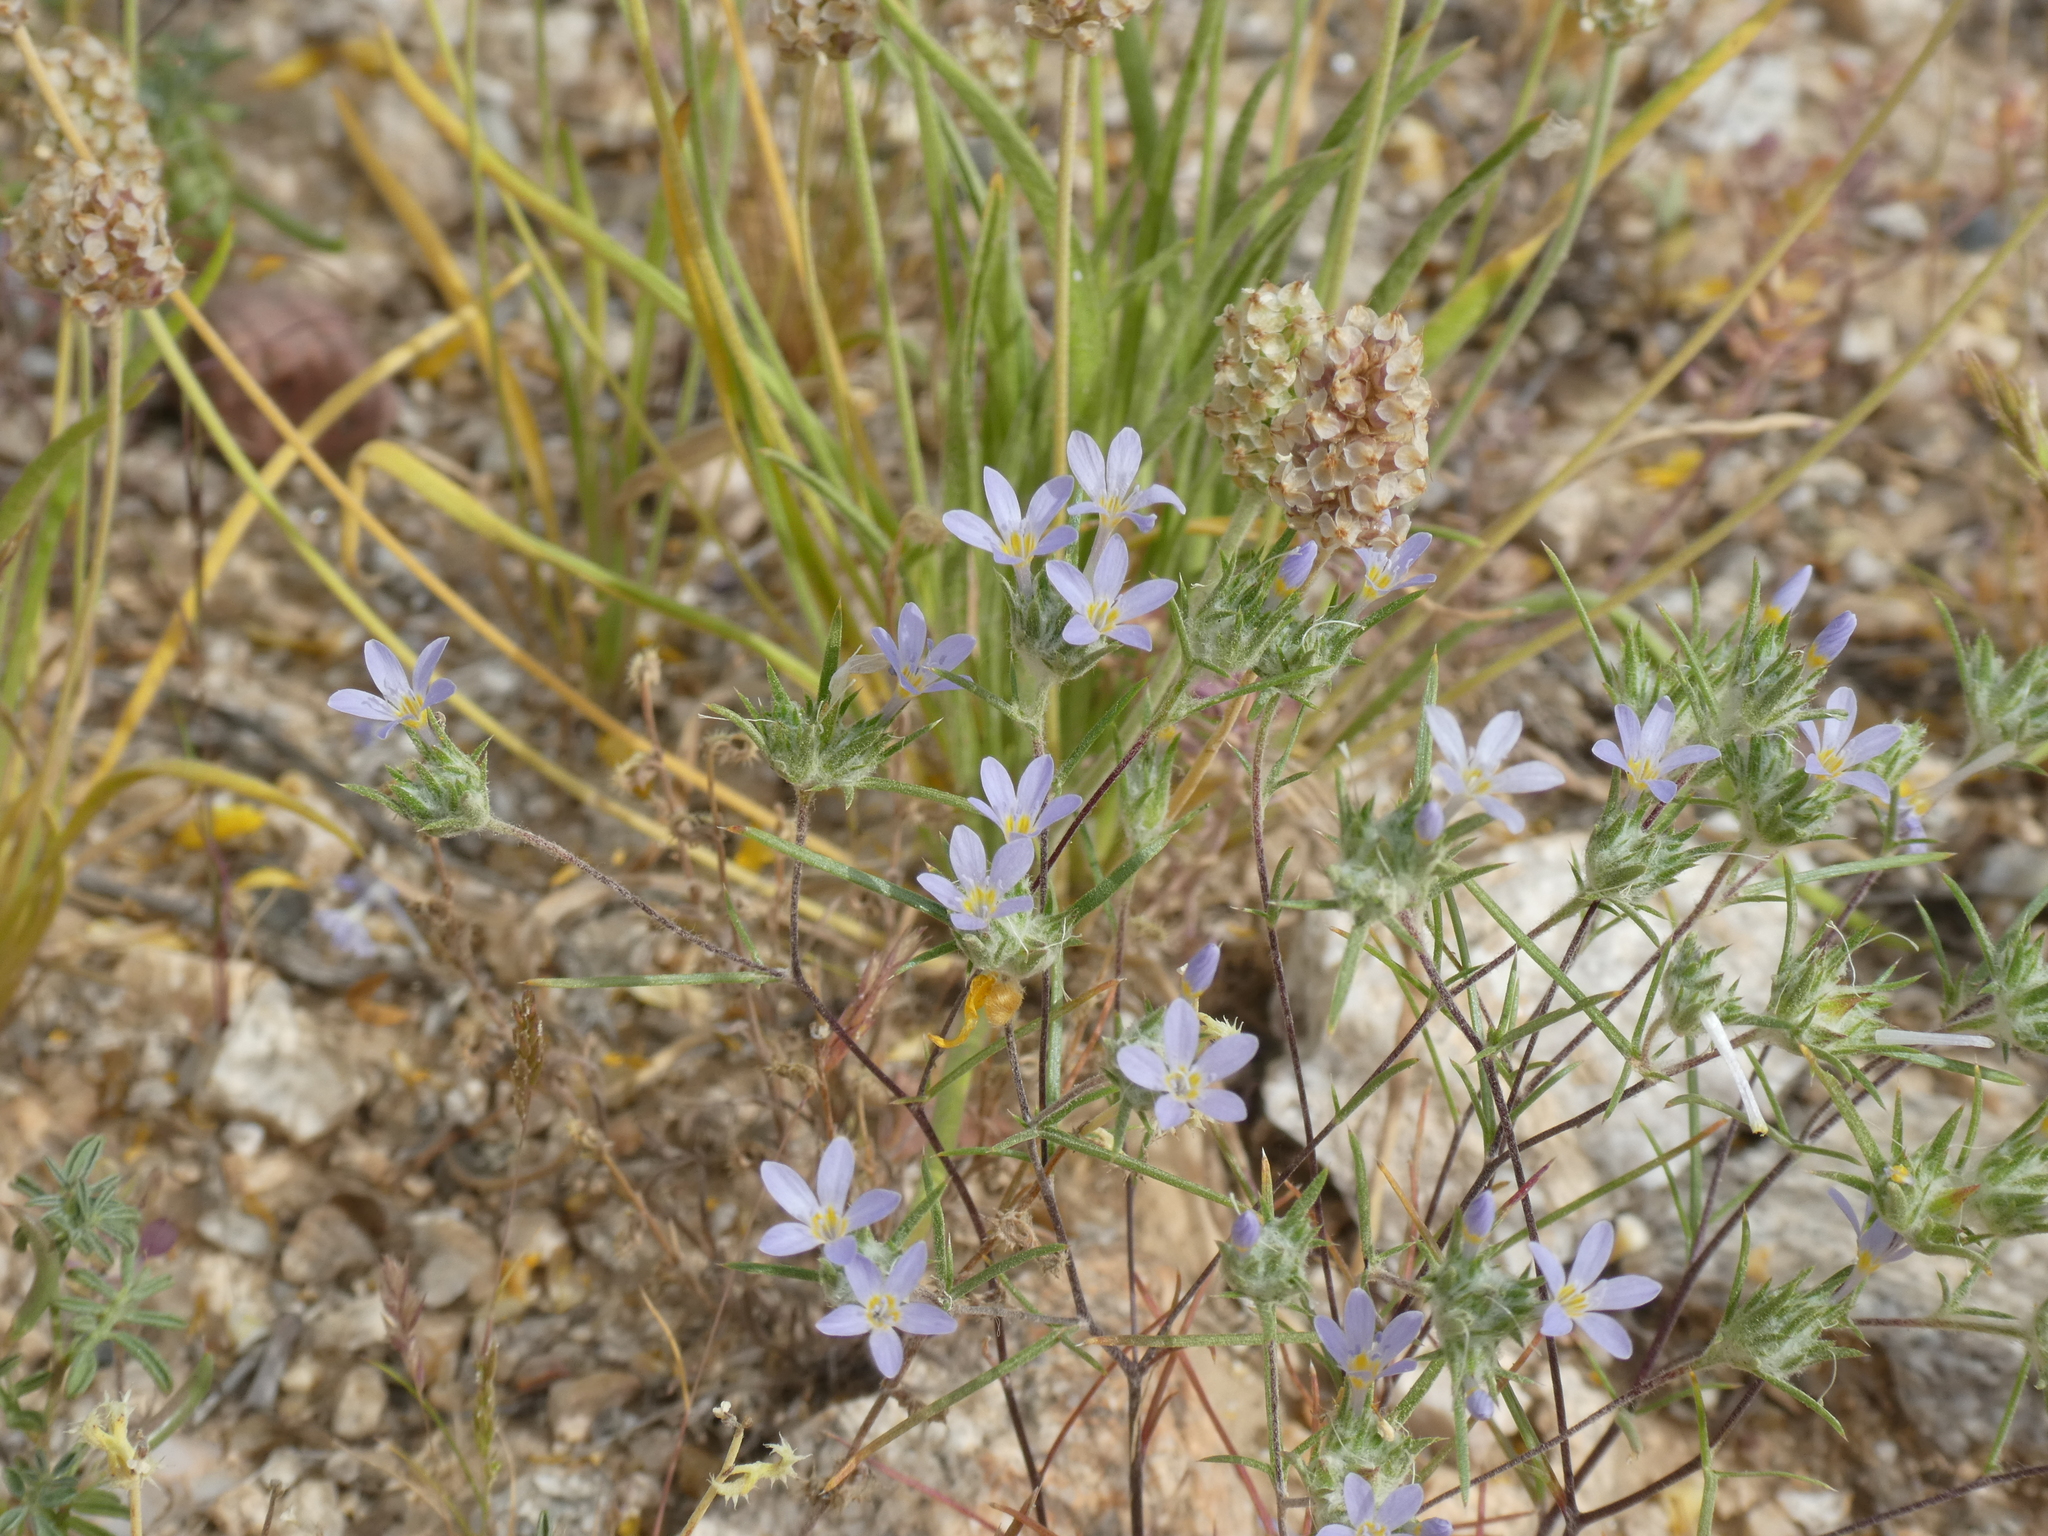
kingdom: Plantae
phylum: Tracheophyta
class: Magnoliopsida
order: Ericales
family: Polemoniaceae
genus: Eriastrum
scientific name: Eriastrum diffusum
